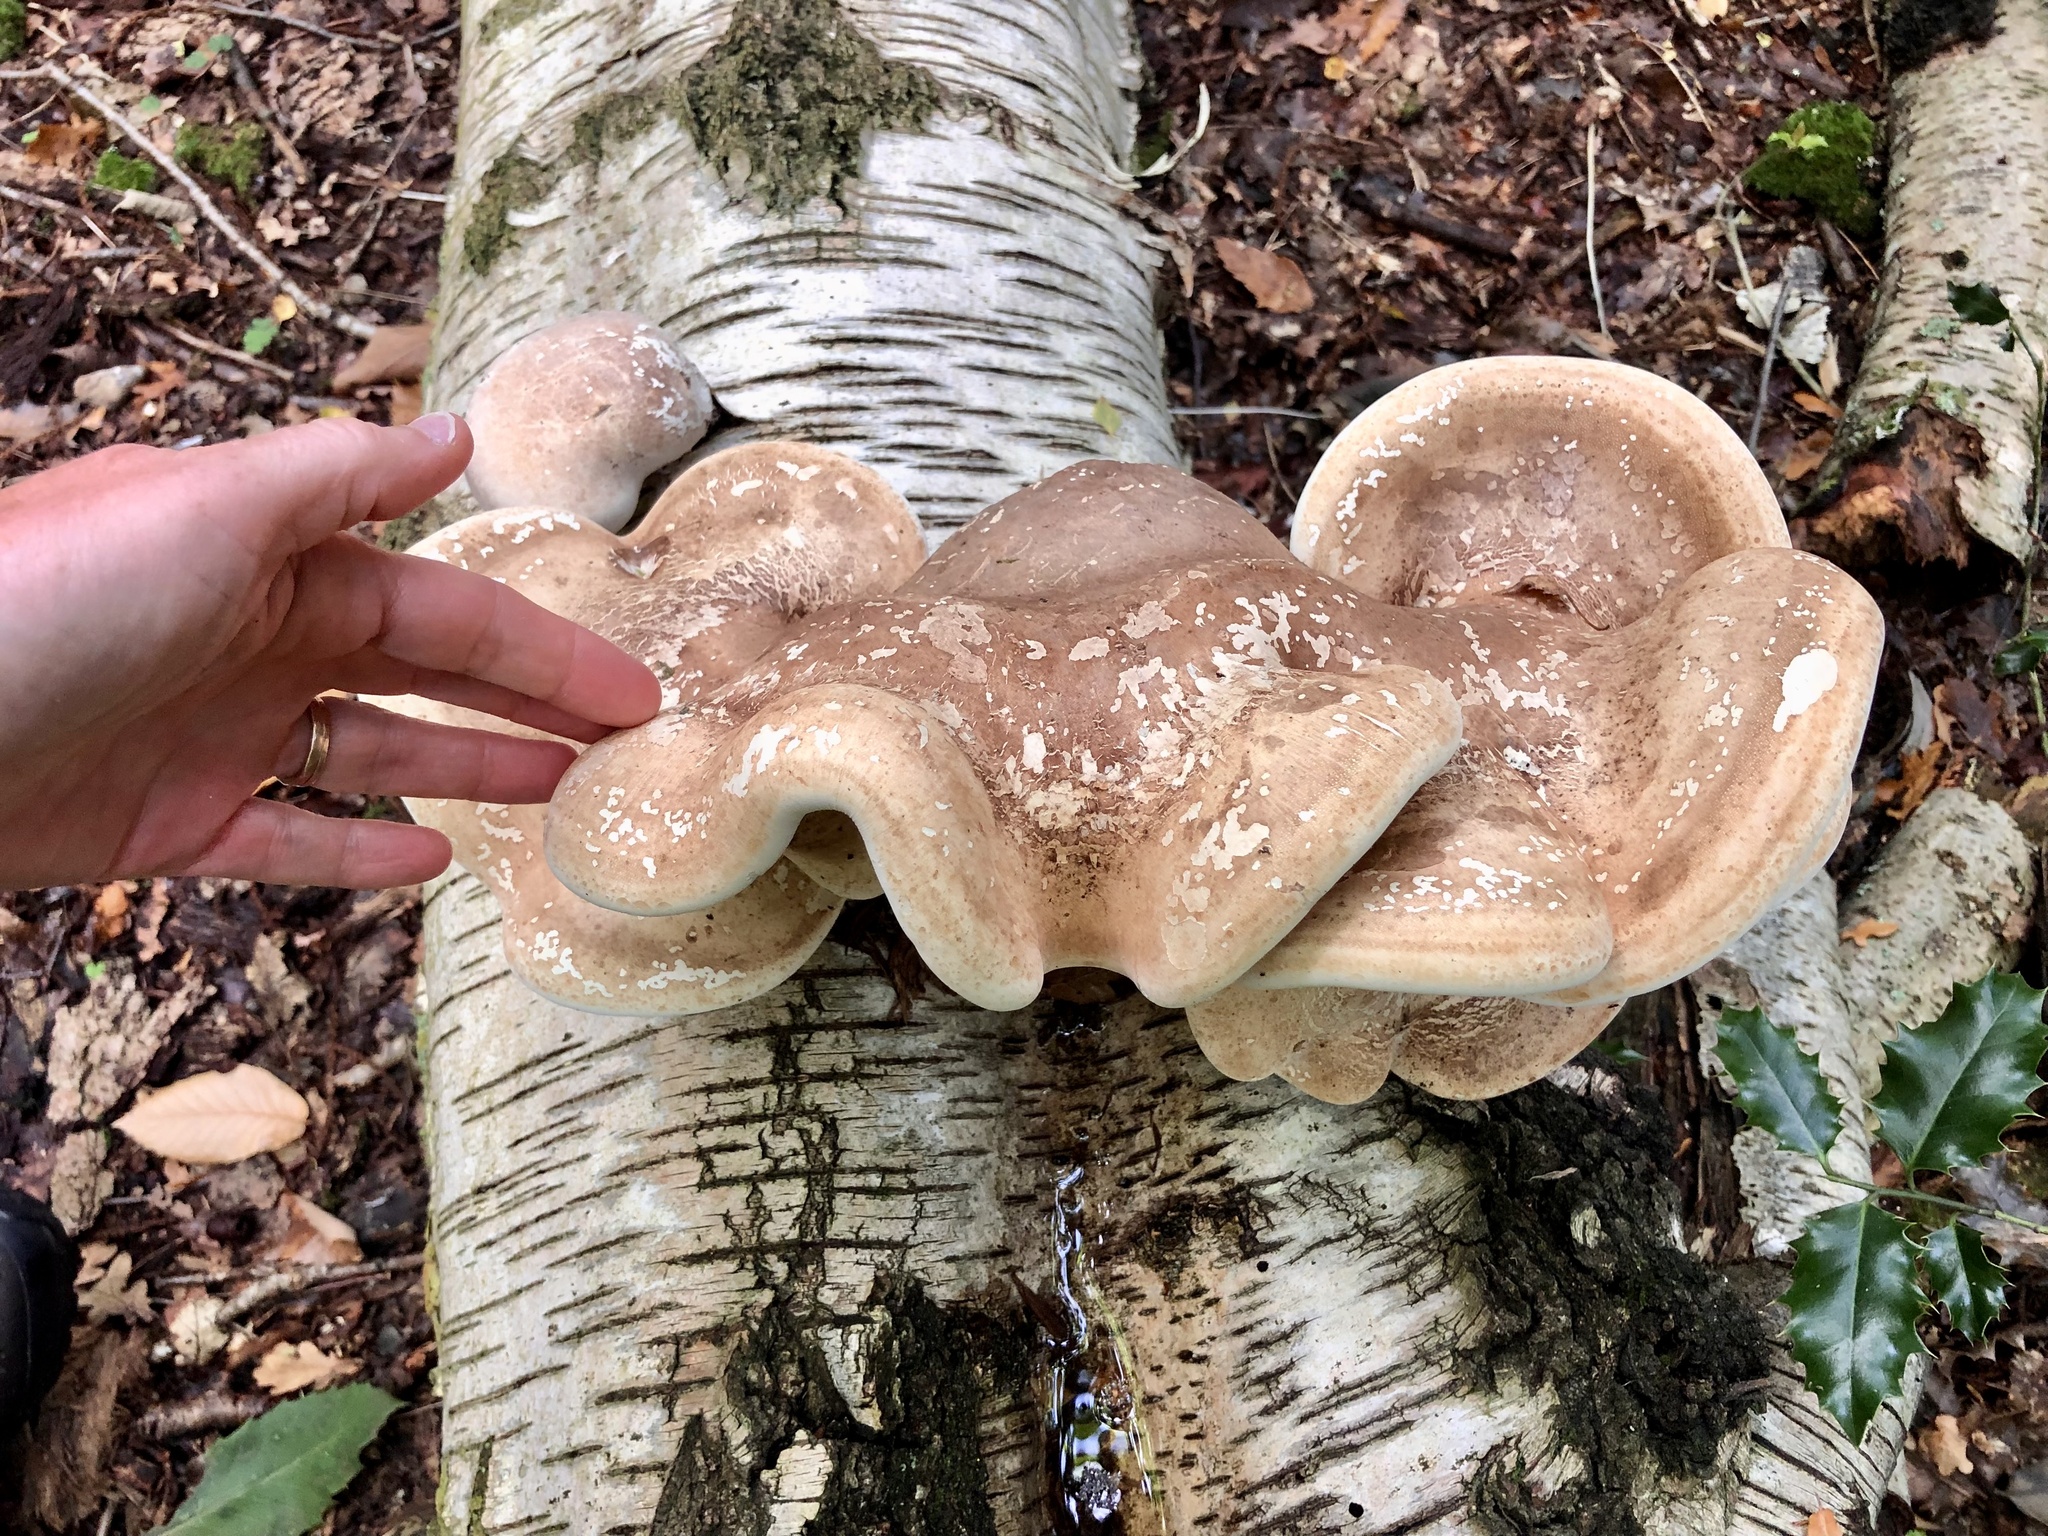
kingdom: Fungi
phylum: Basidiomycota
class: Agaricomycetes
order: Polyporales
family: Fomitopsidaceae
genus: Fomitopsis
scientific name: Fomitopsis betulina
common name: Birch polypore
